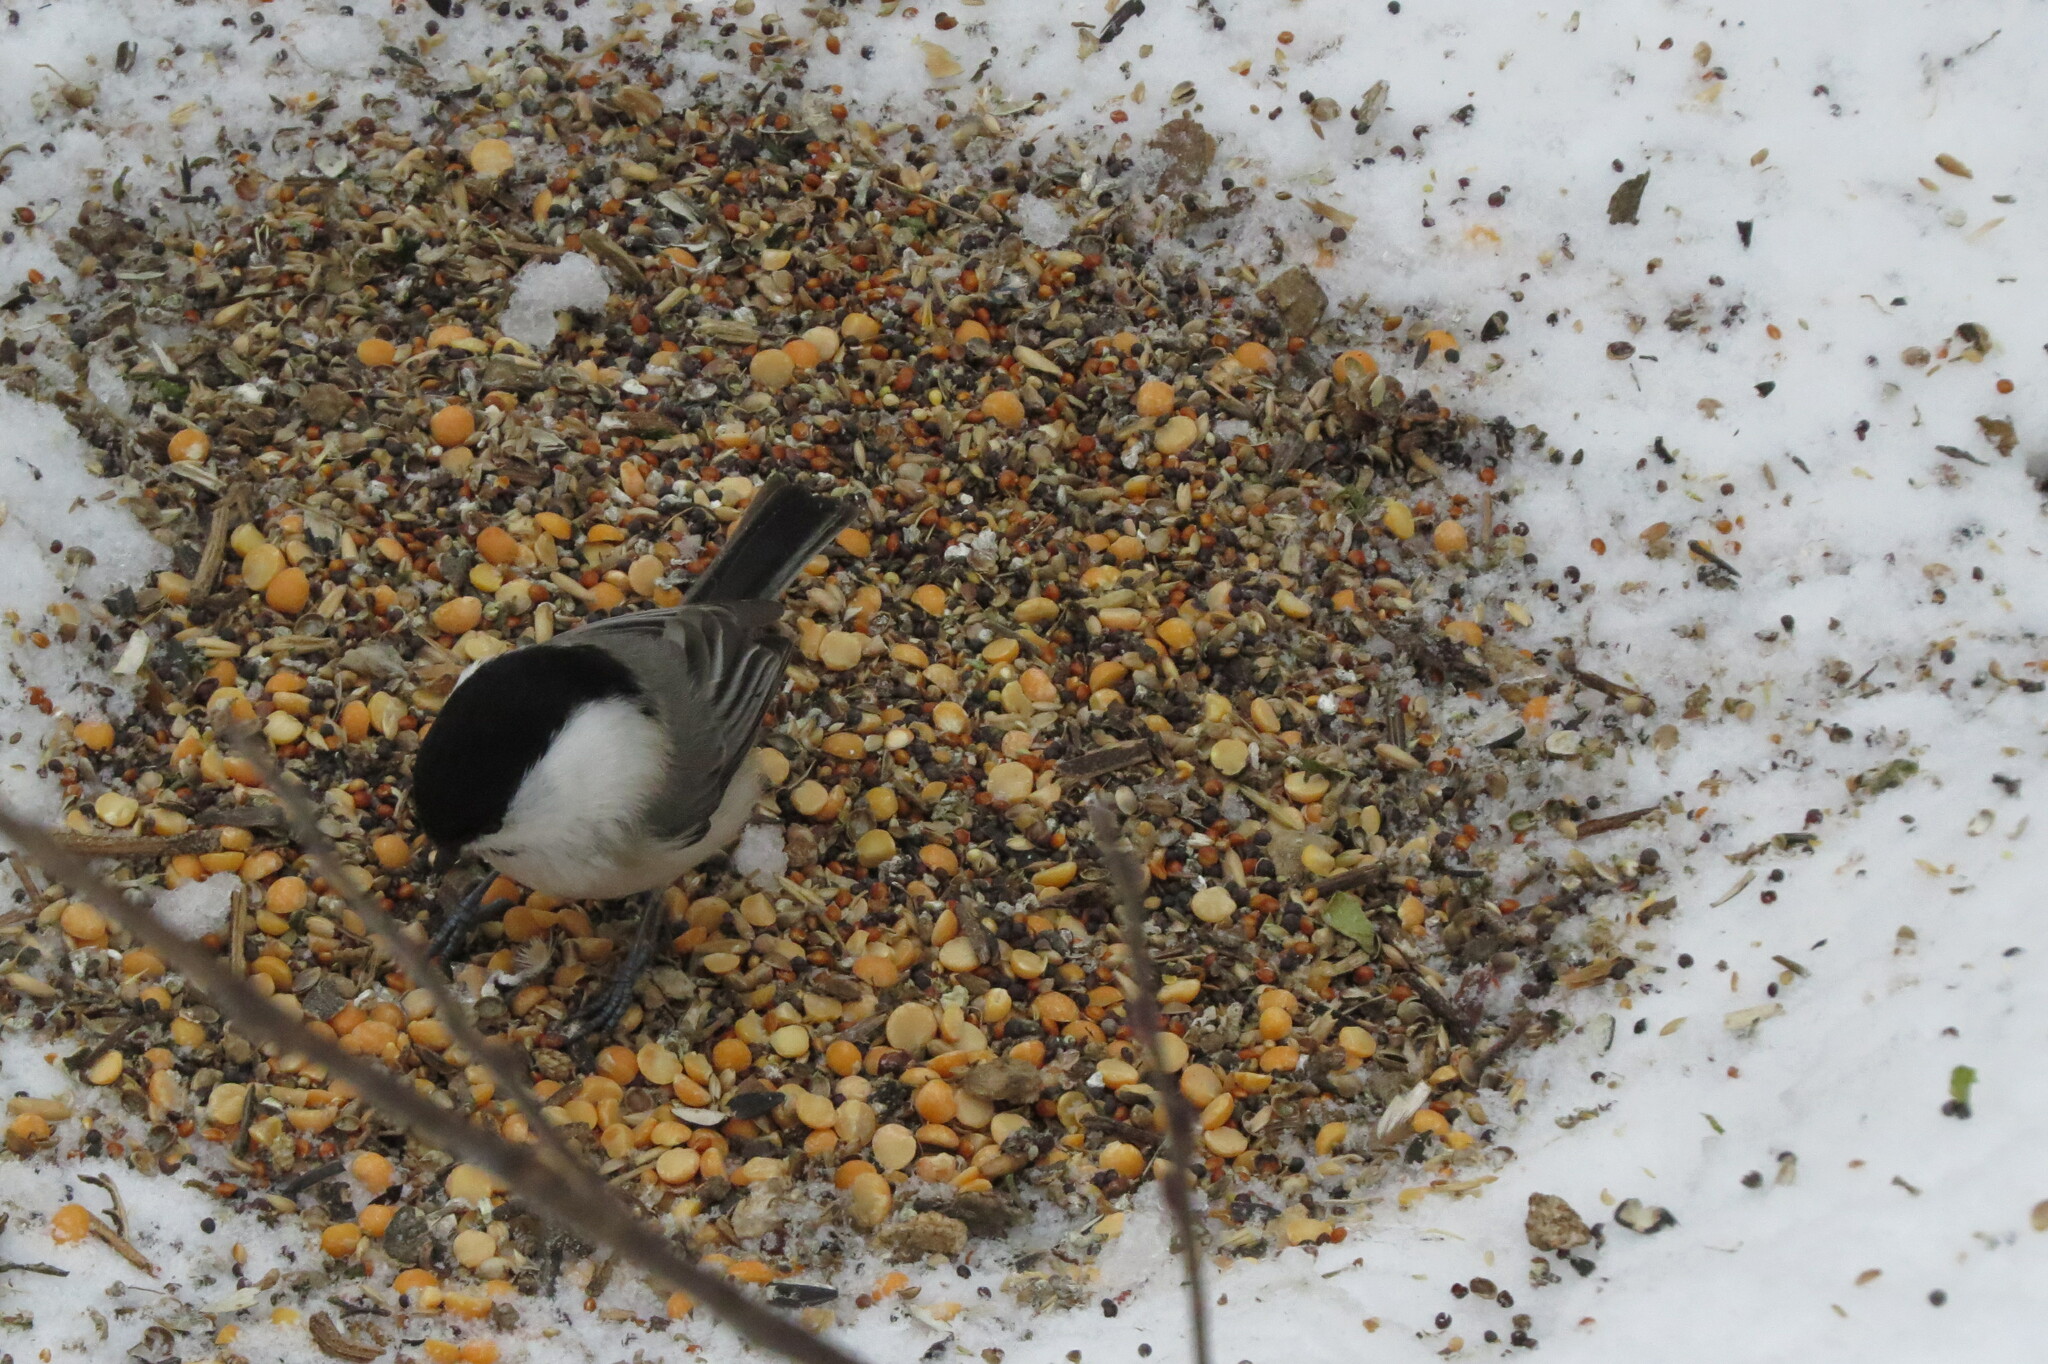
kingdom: Animalia
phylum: Chordata
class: Aves
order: Passeriformes
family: Paridae
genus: Poecile
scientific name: Poecile montanus
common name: Willow tit
